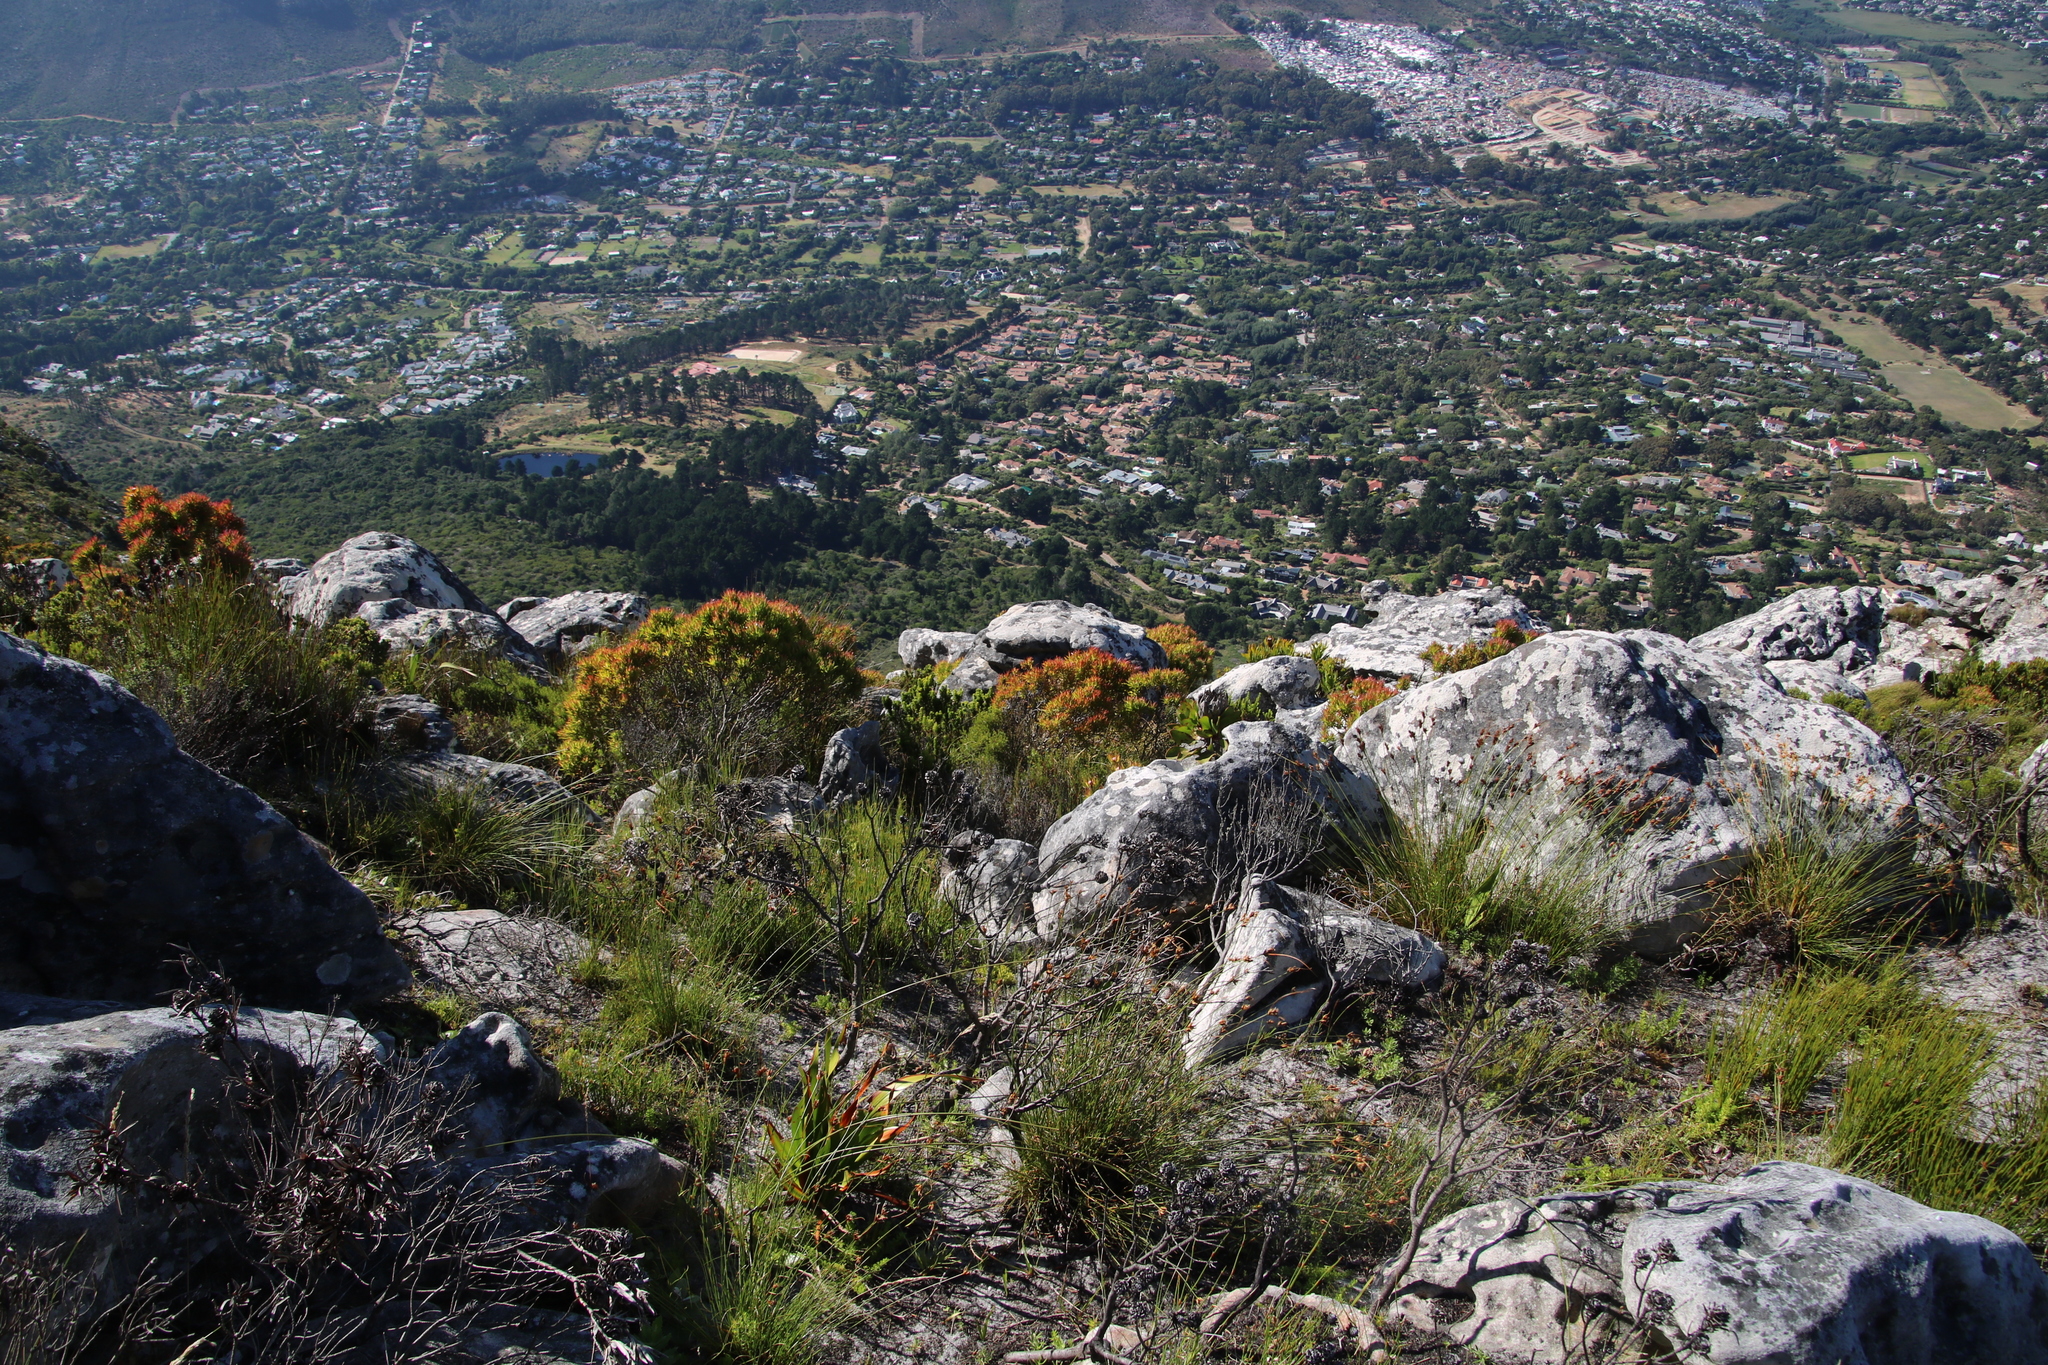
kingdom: Plantae
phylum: Tracheophyta
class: Magnoliopsida
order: Proteales
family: Proteaceae
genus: Leucadendron
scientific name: Leucadendron xanthoconus
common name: Sickle-leaf conebush
